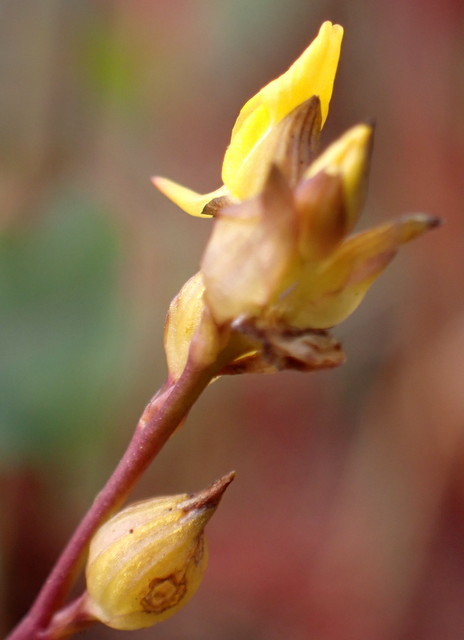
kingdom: Plantae
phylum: Tracheophyta
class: Magnoliopsida
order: Lamiales
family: Lentibulariaceae
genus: Utricularia
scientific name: Utricularia juncea
